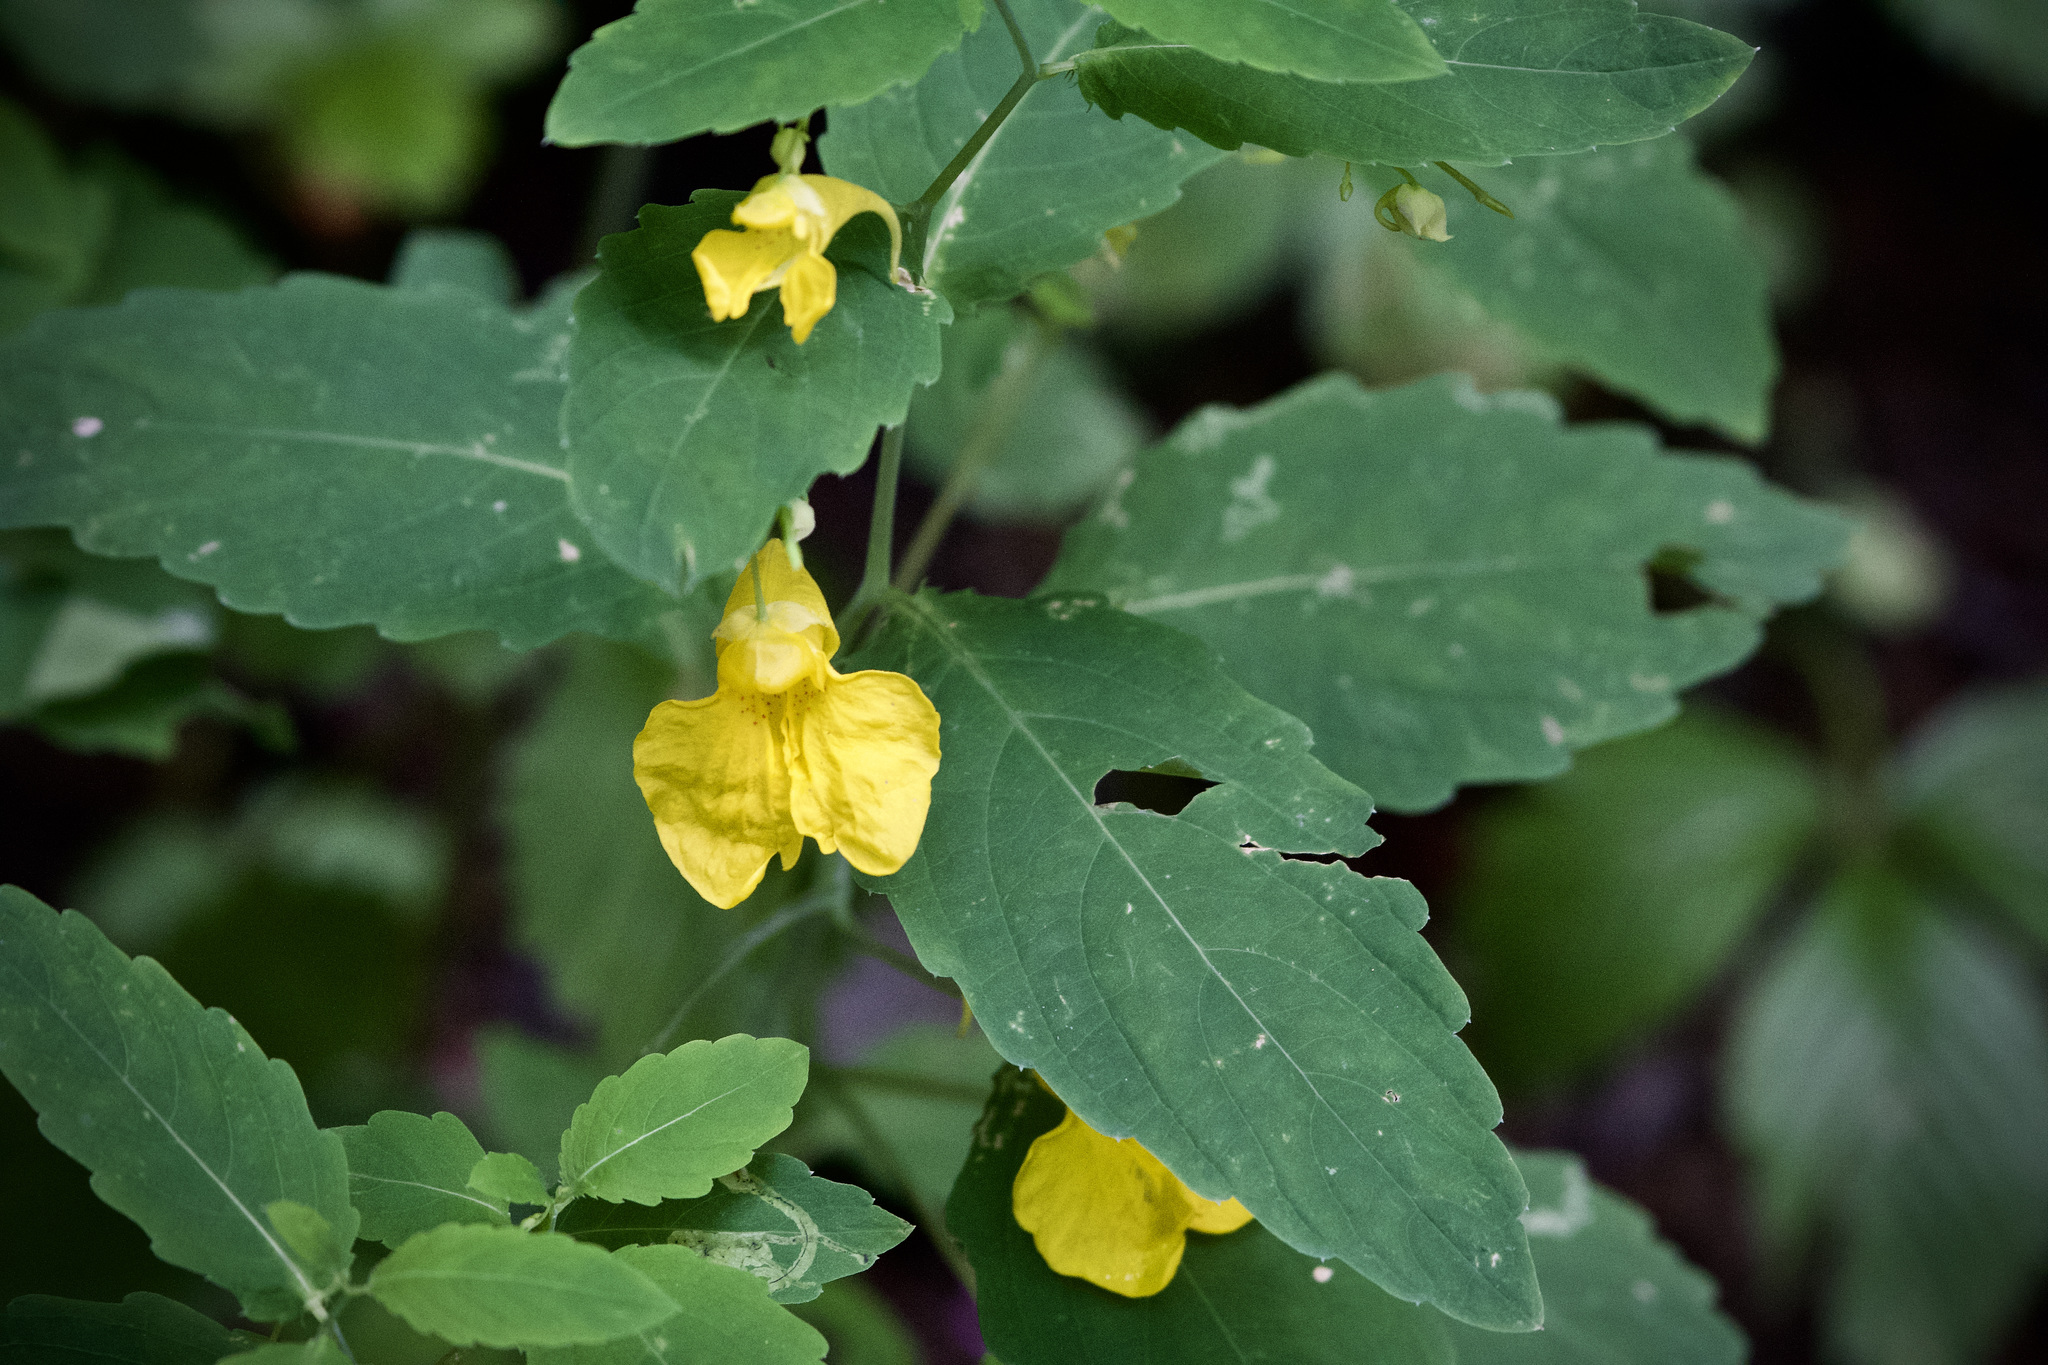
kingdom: Plantae
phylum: Tracheophyta
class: Magnoliopsida
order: Ericales
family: Balsaminaceae
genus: Impatiens
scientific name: Impatiens noli-tangere
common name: Touch-me-not balsam
